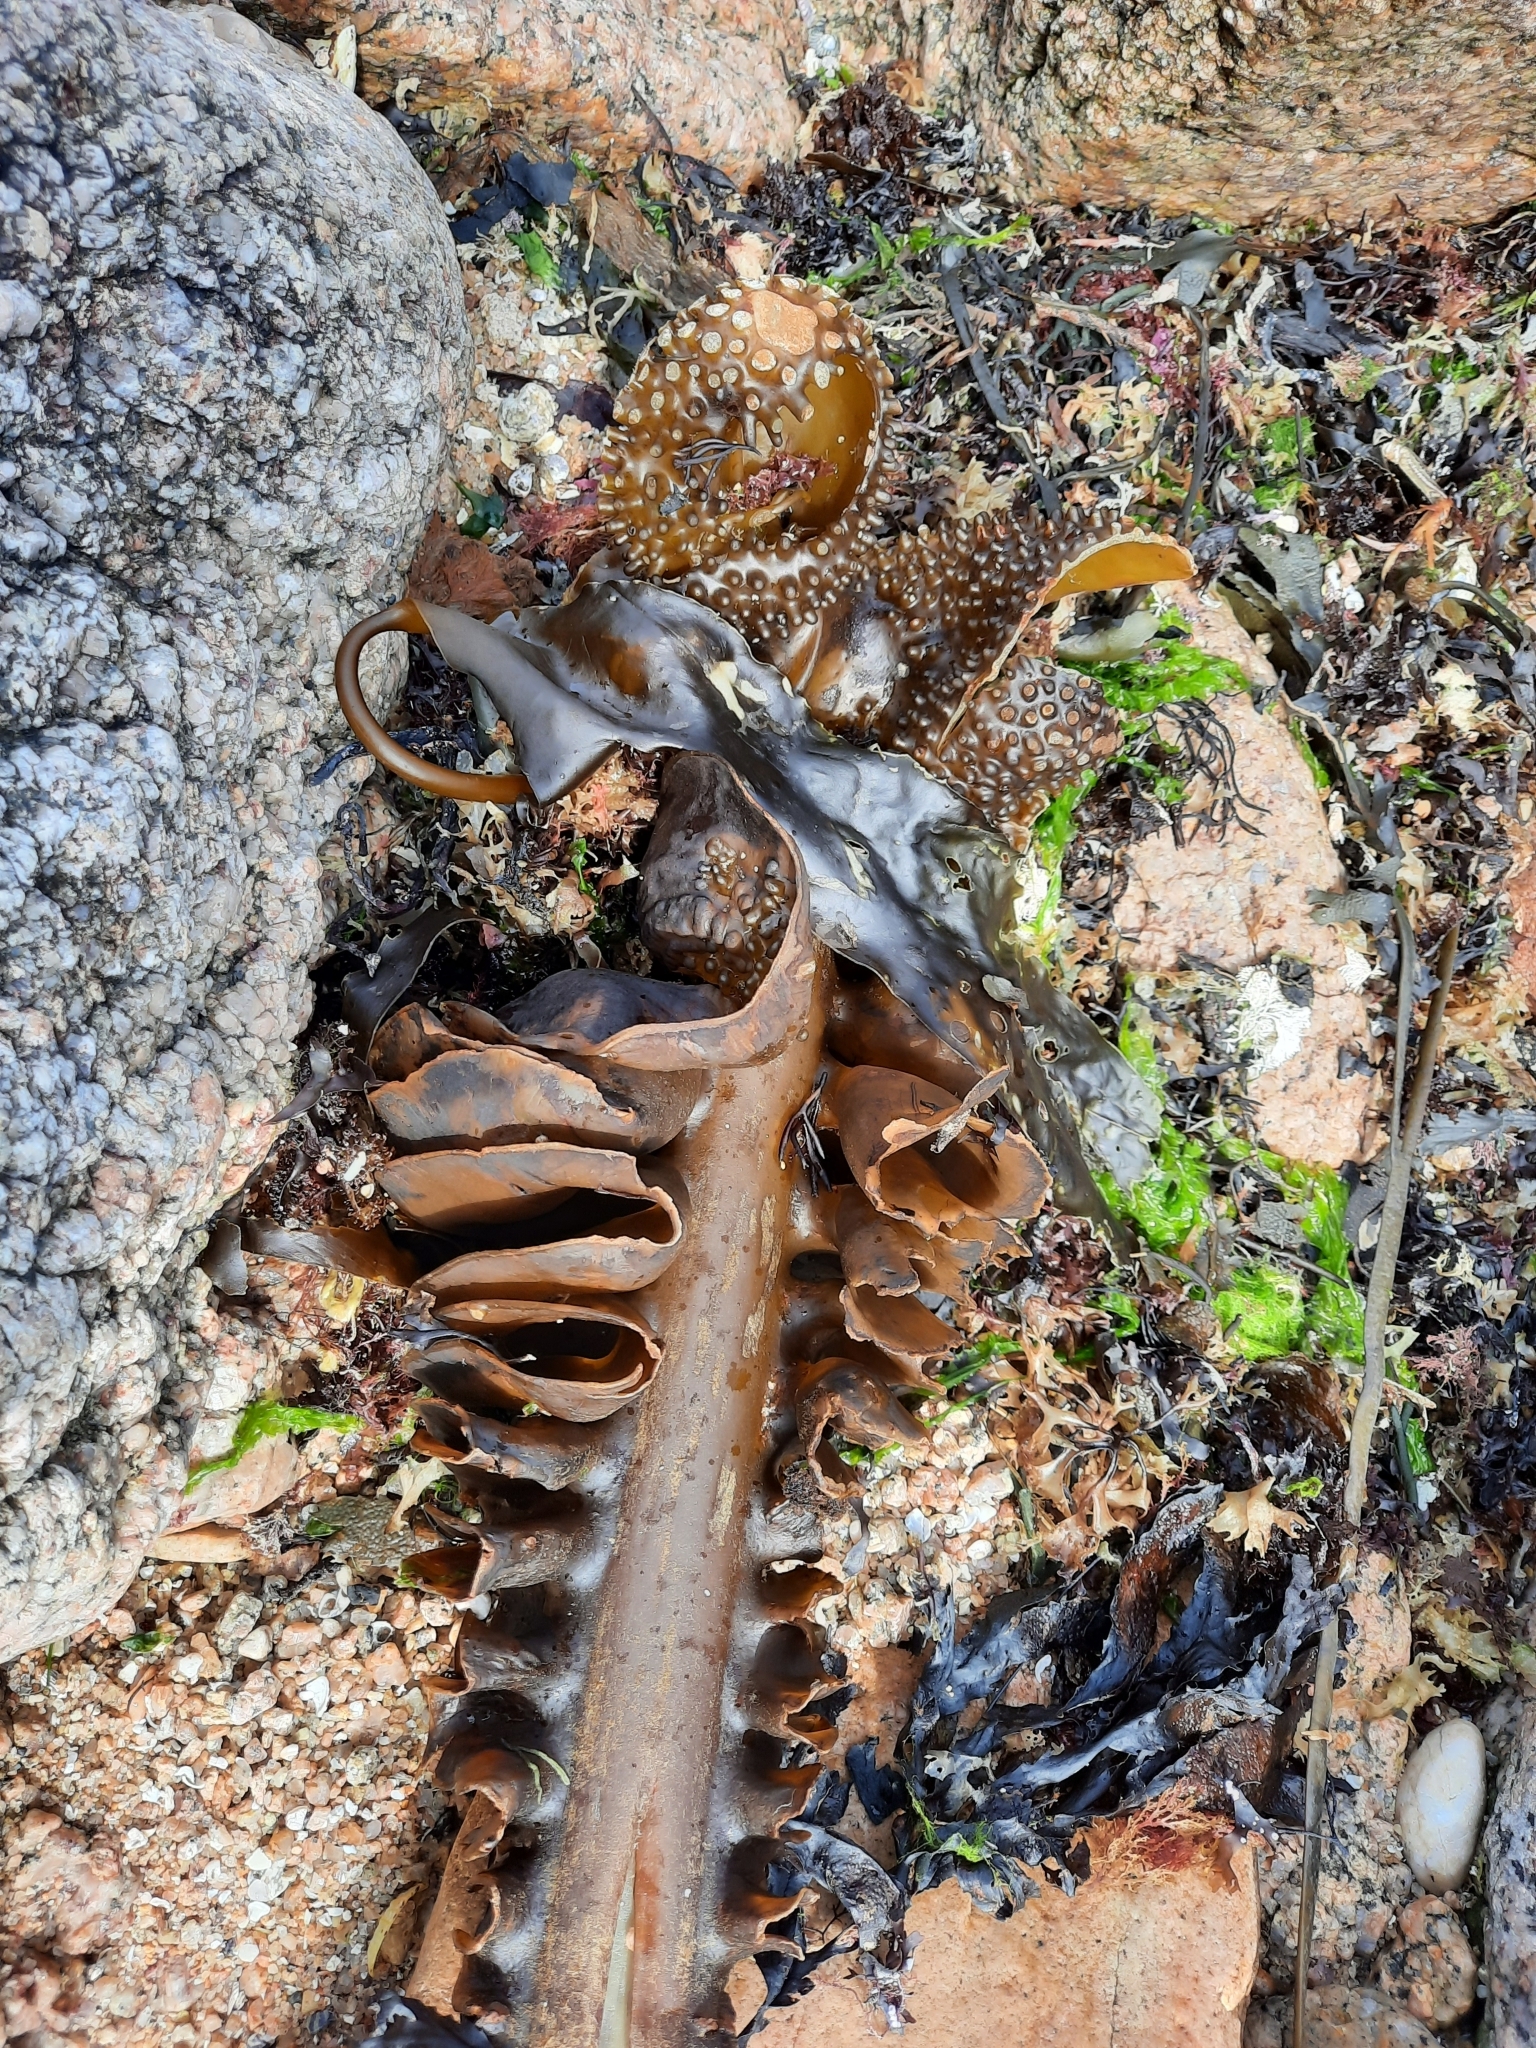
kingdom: Chromista
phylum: Ochrophyta
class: Phaeophyceae
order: Tilopteridales
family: Phyllariaceae
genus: Saccorhiza
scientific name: Saccorhiza polyschides
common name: Furbelows
